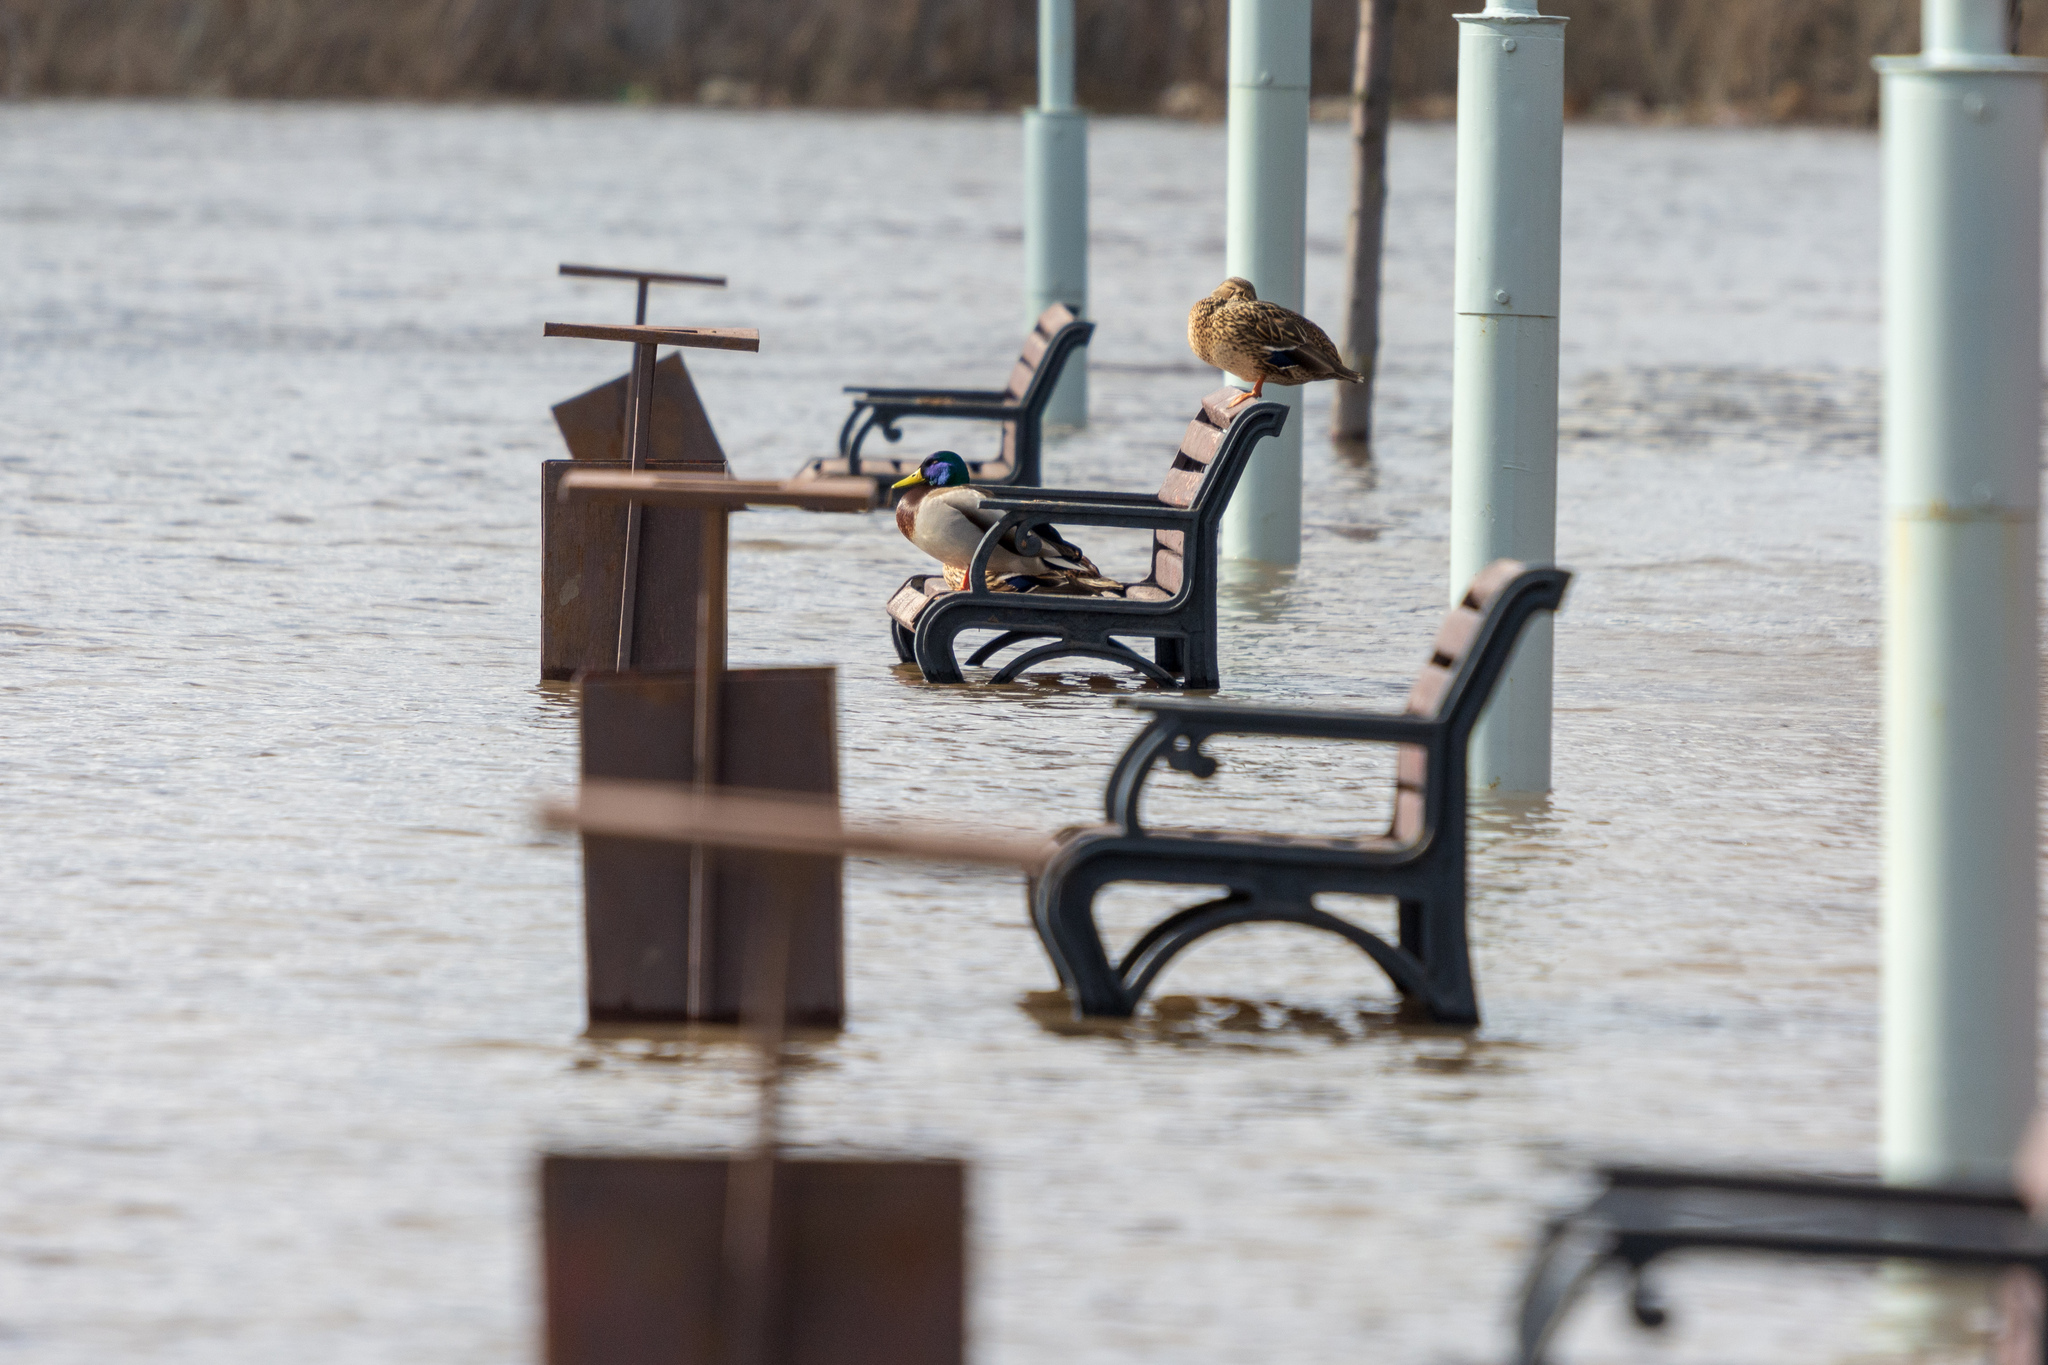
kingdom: Animalia
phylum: Chordata
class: Aves
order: Anseriformes
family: Anatidae
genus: Anas
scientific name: Anas platyrhynchos
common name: Mallard
